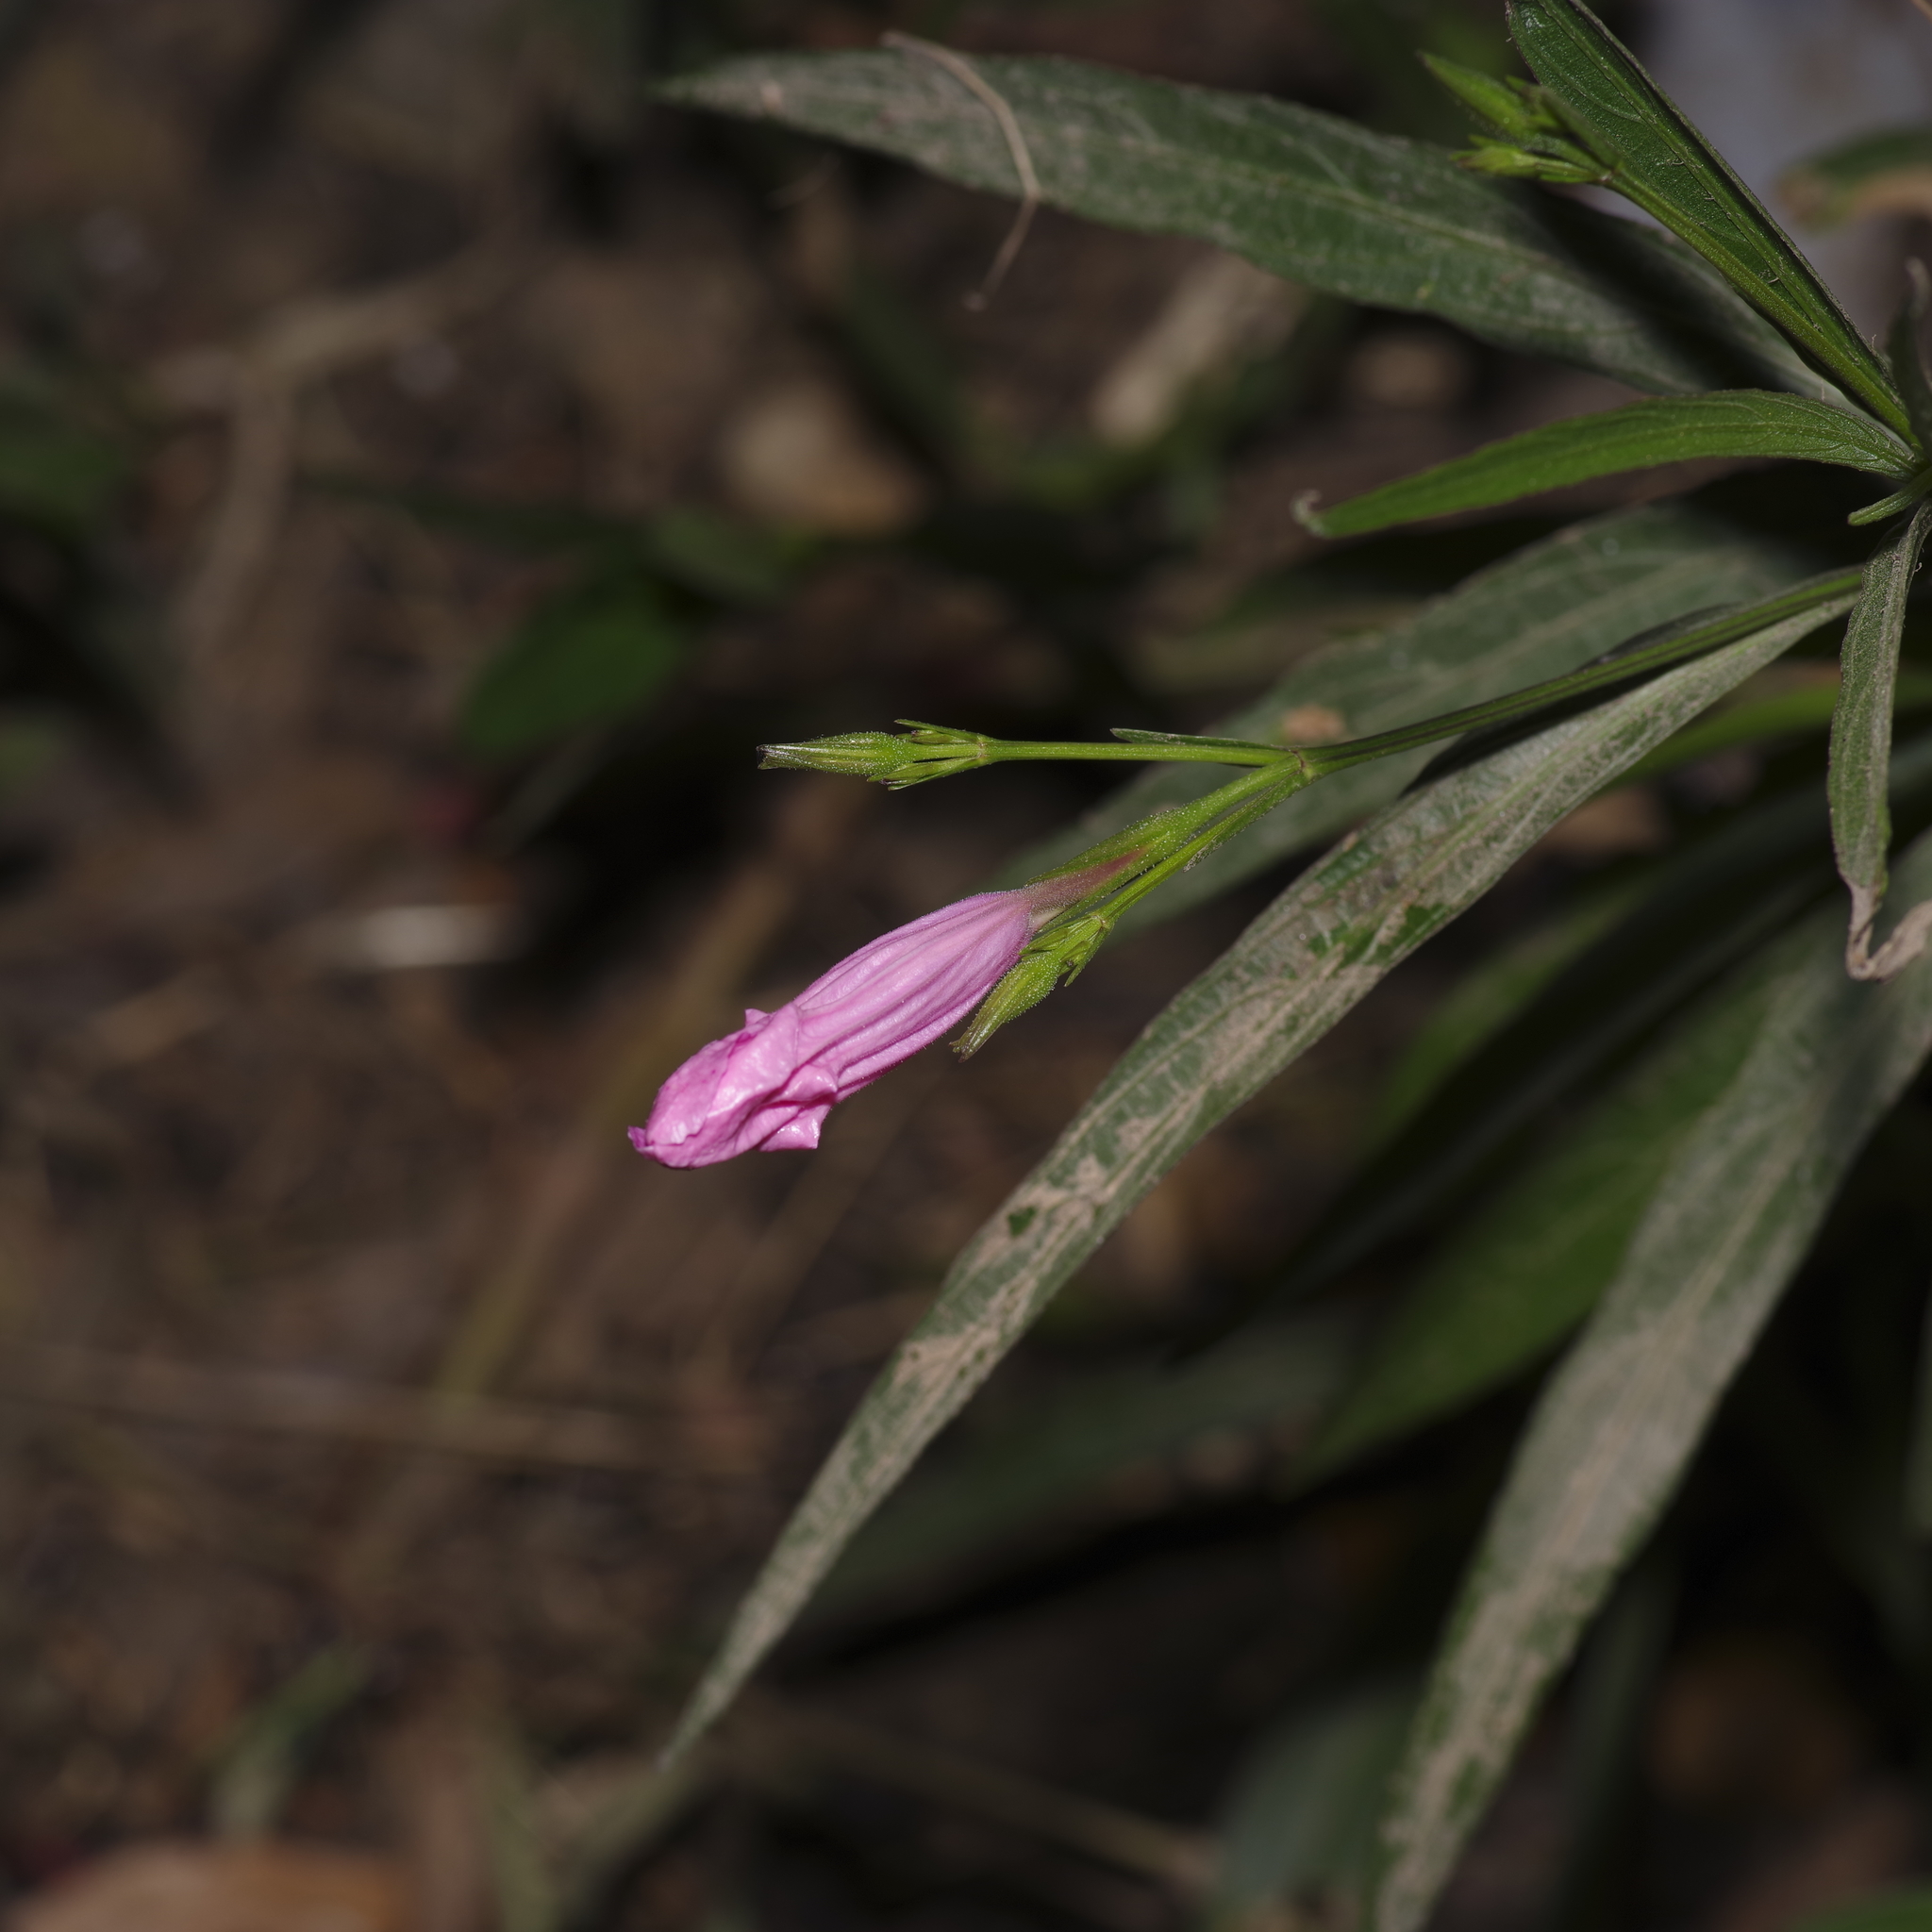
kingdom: Plantae
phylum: Tracheophyta
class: Magnoliopsida
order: Lamiales
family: Acanthaceae
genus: Ruellia
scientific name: Ruellia simplex
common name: Softseed wild petunia
